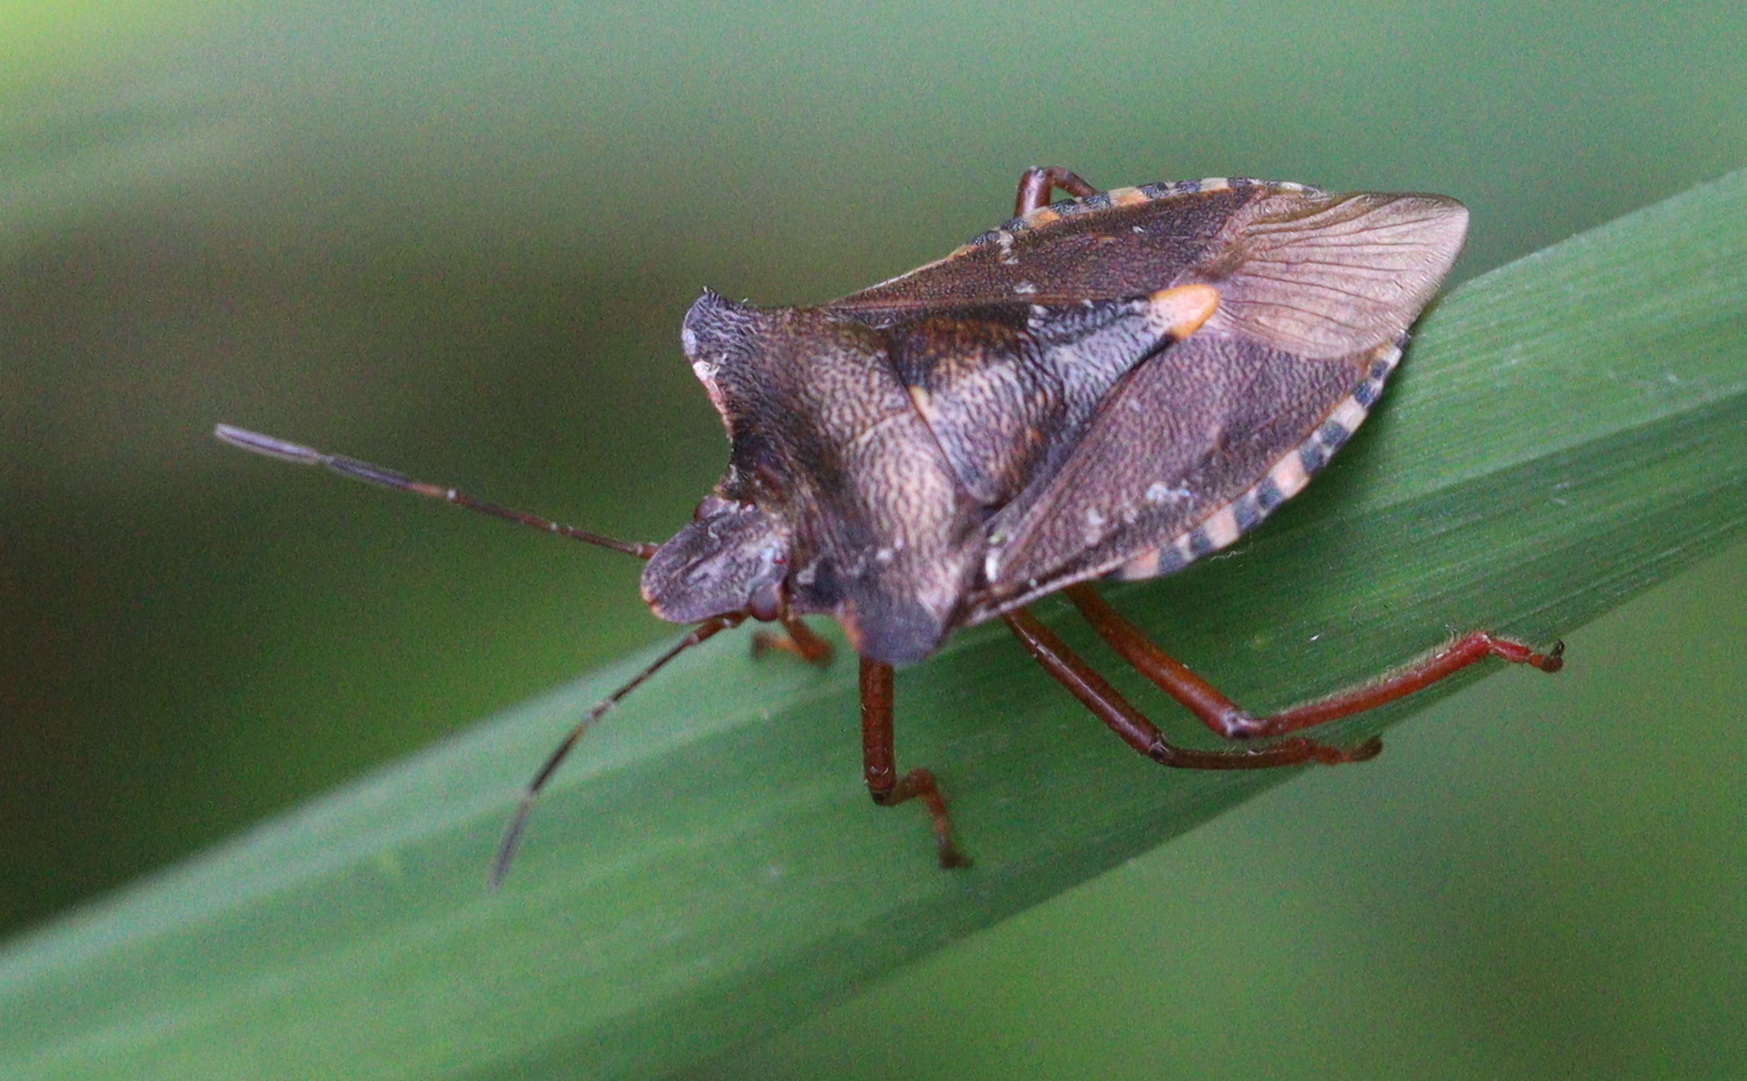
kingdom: Animalia
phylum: Arthropoda
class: Insecta
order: Hemiptera
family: Pentatomidae
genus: Pentatoma
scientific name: Pentatoma rufipes
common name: Forest bug
